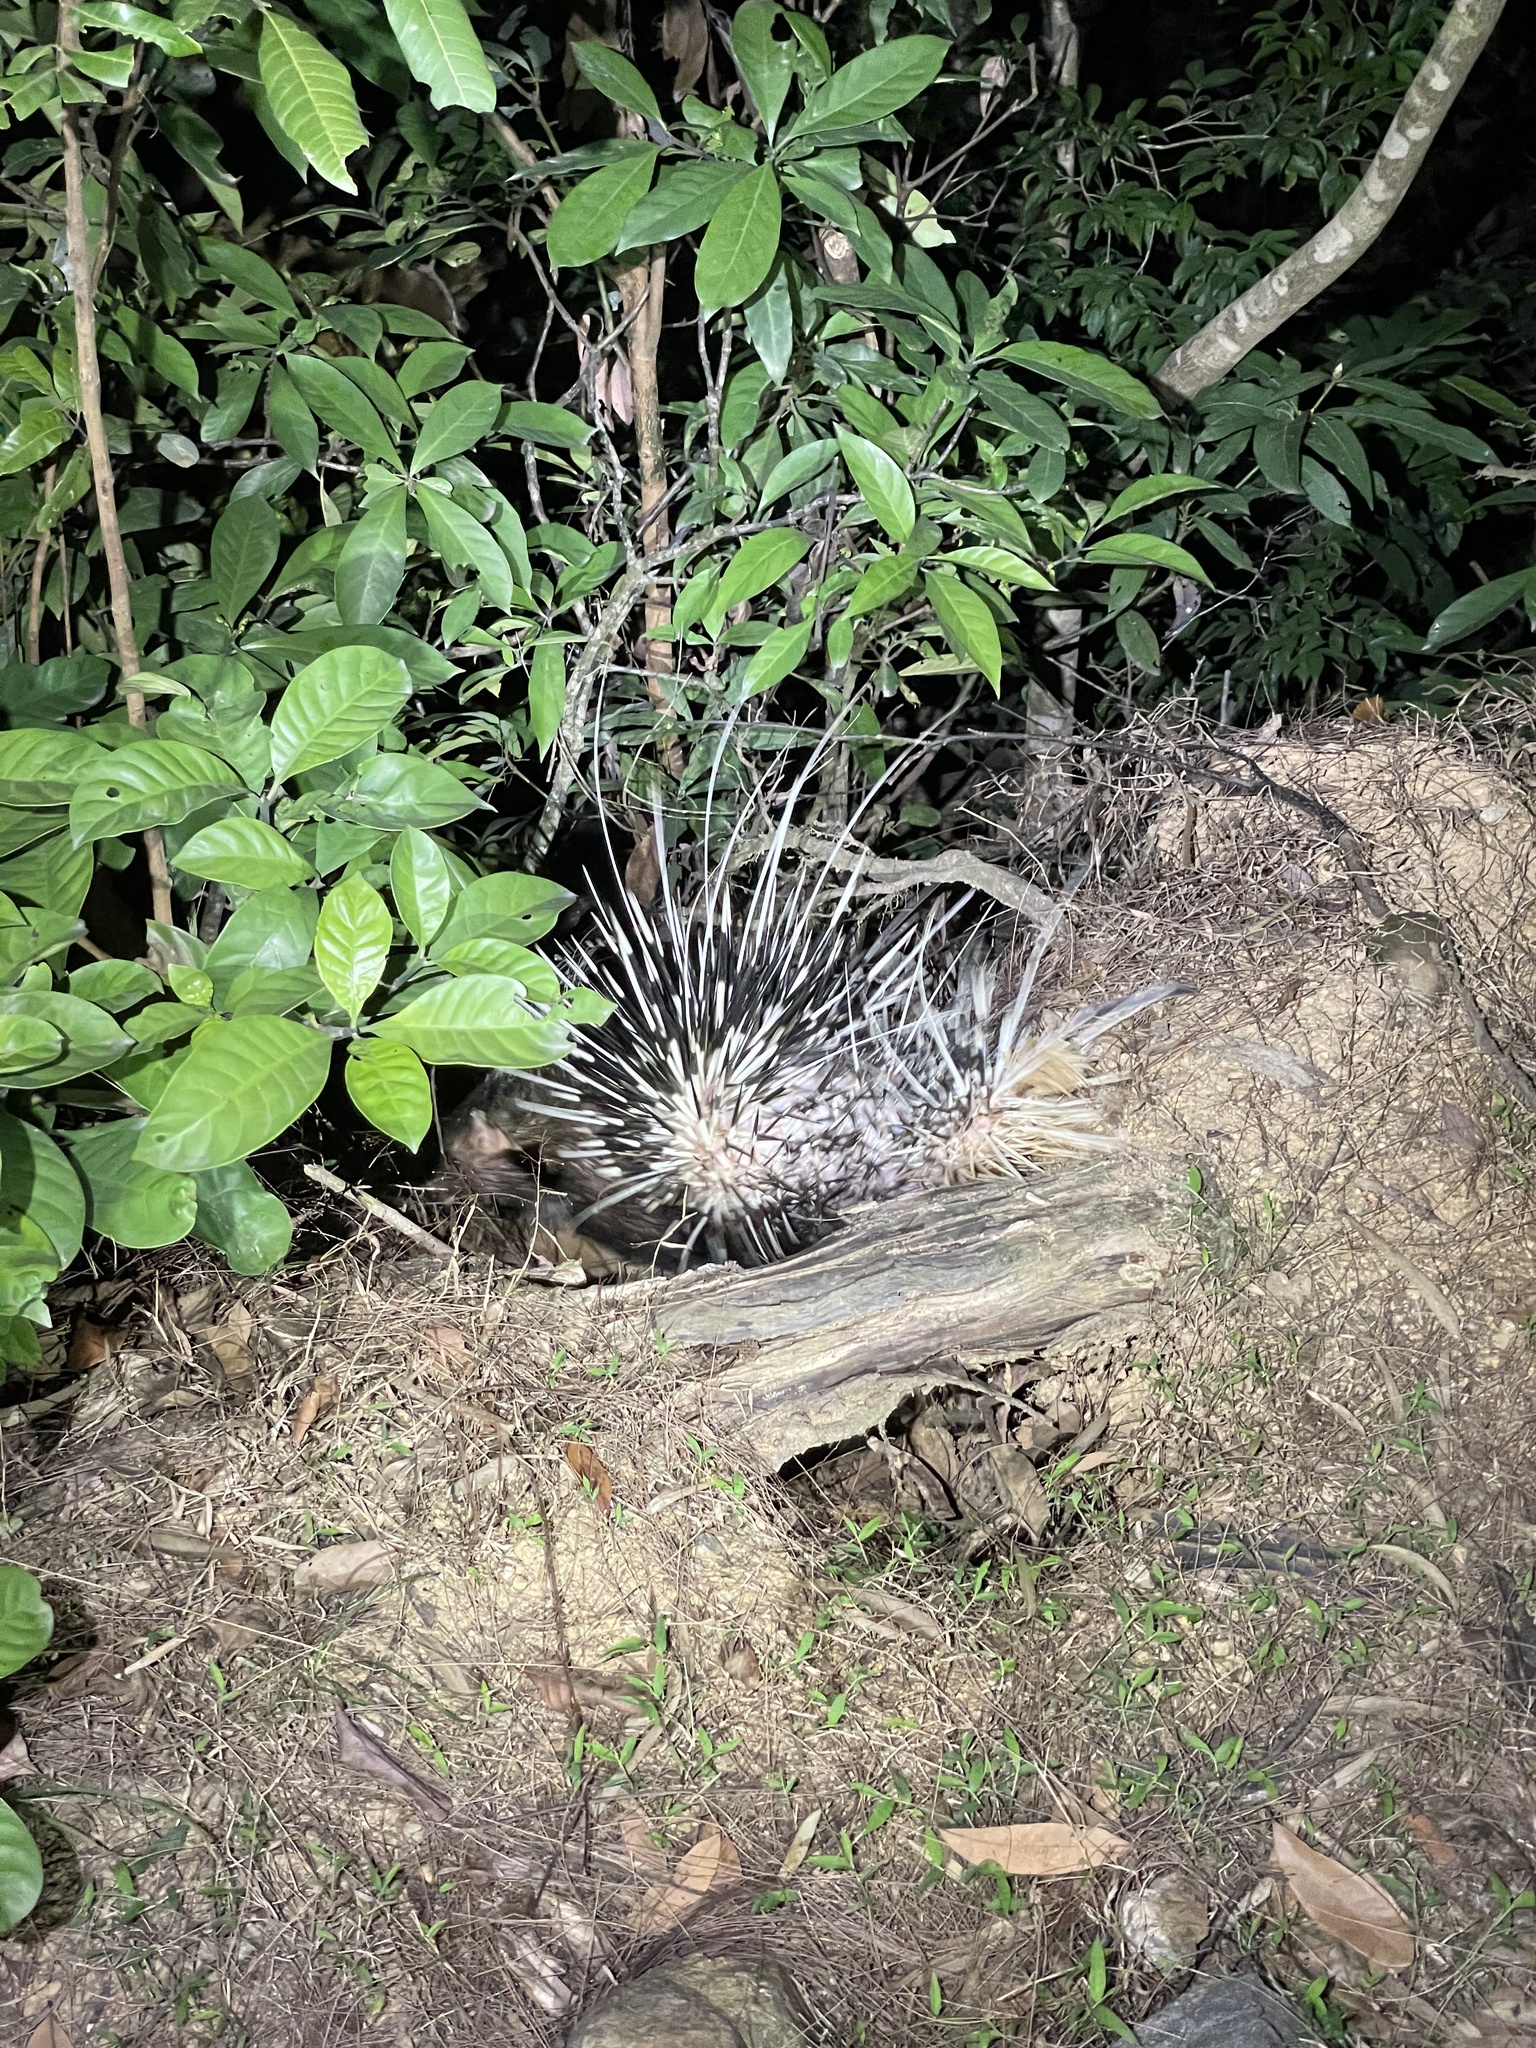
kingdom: Animalia
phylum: Chordata
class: Mammalia
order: Rodentia
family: Hystricidae
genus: Hystrix
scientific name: Hystrix brachyura
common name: Malayan porcupine
